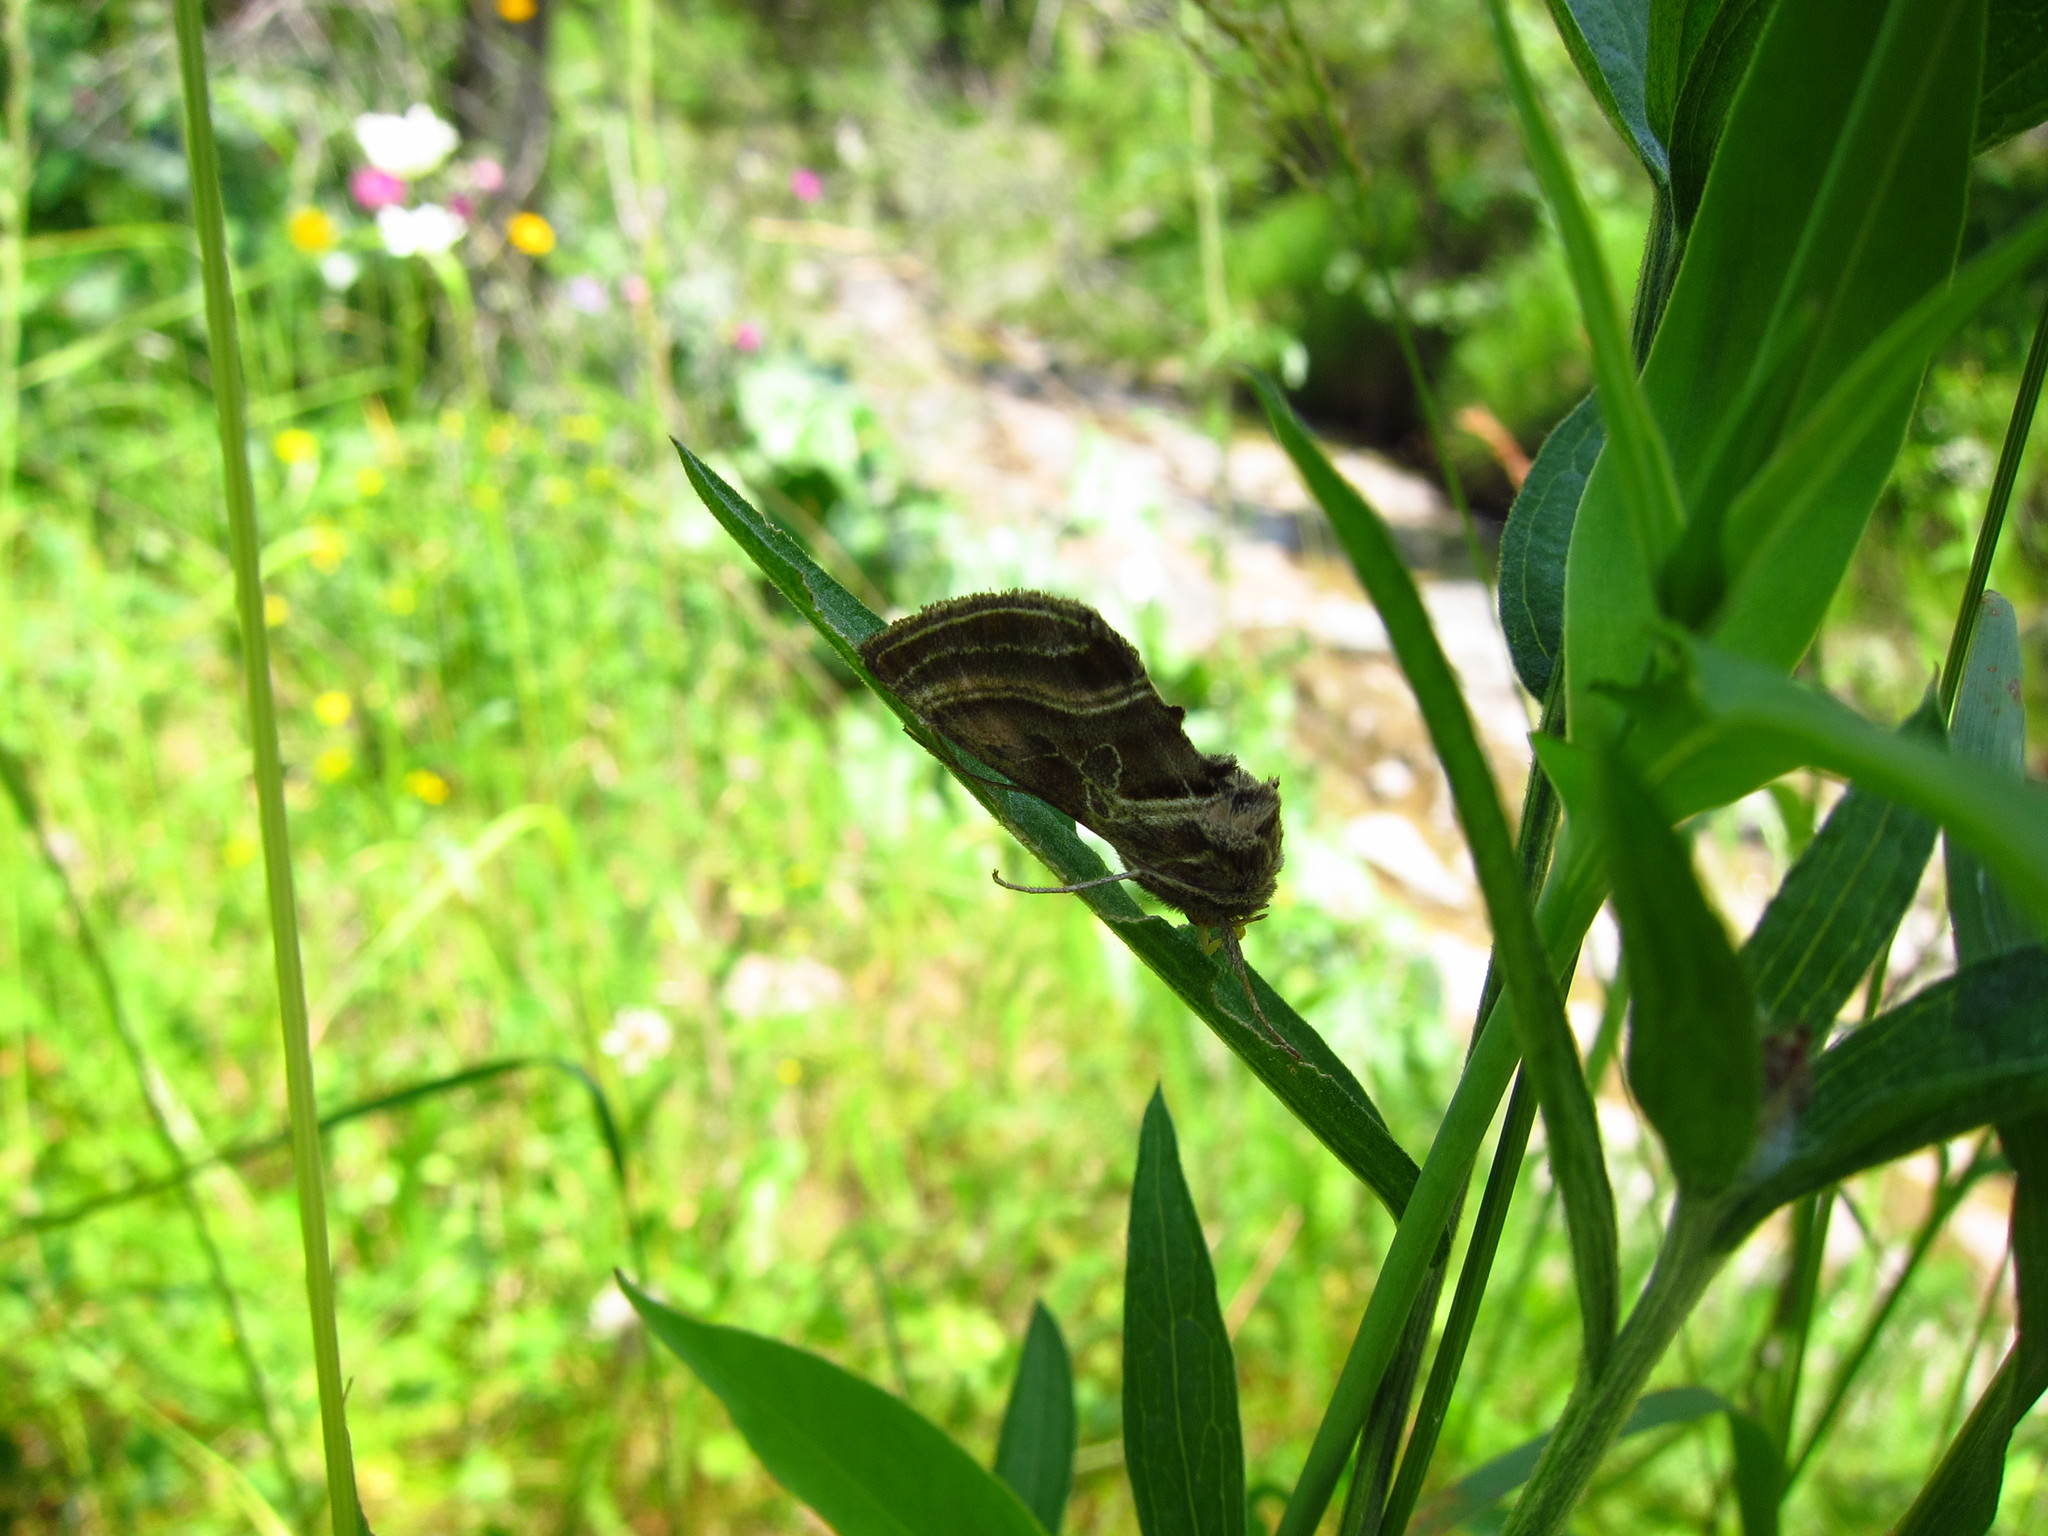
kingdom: Animalia
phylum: Arthropoda
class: Insecta
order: Lepidoptera
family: Noctuidae
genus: Euchalcia
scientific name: Euchalcia variabilis
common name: Purple-shaded gem
